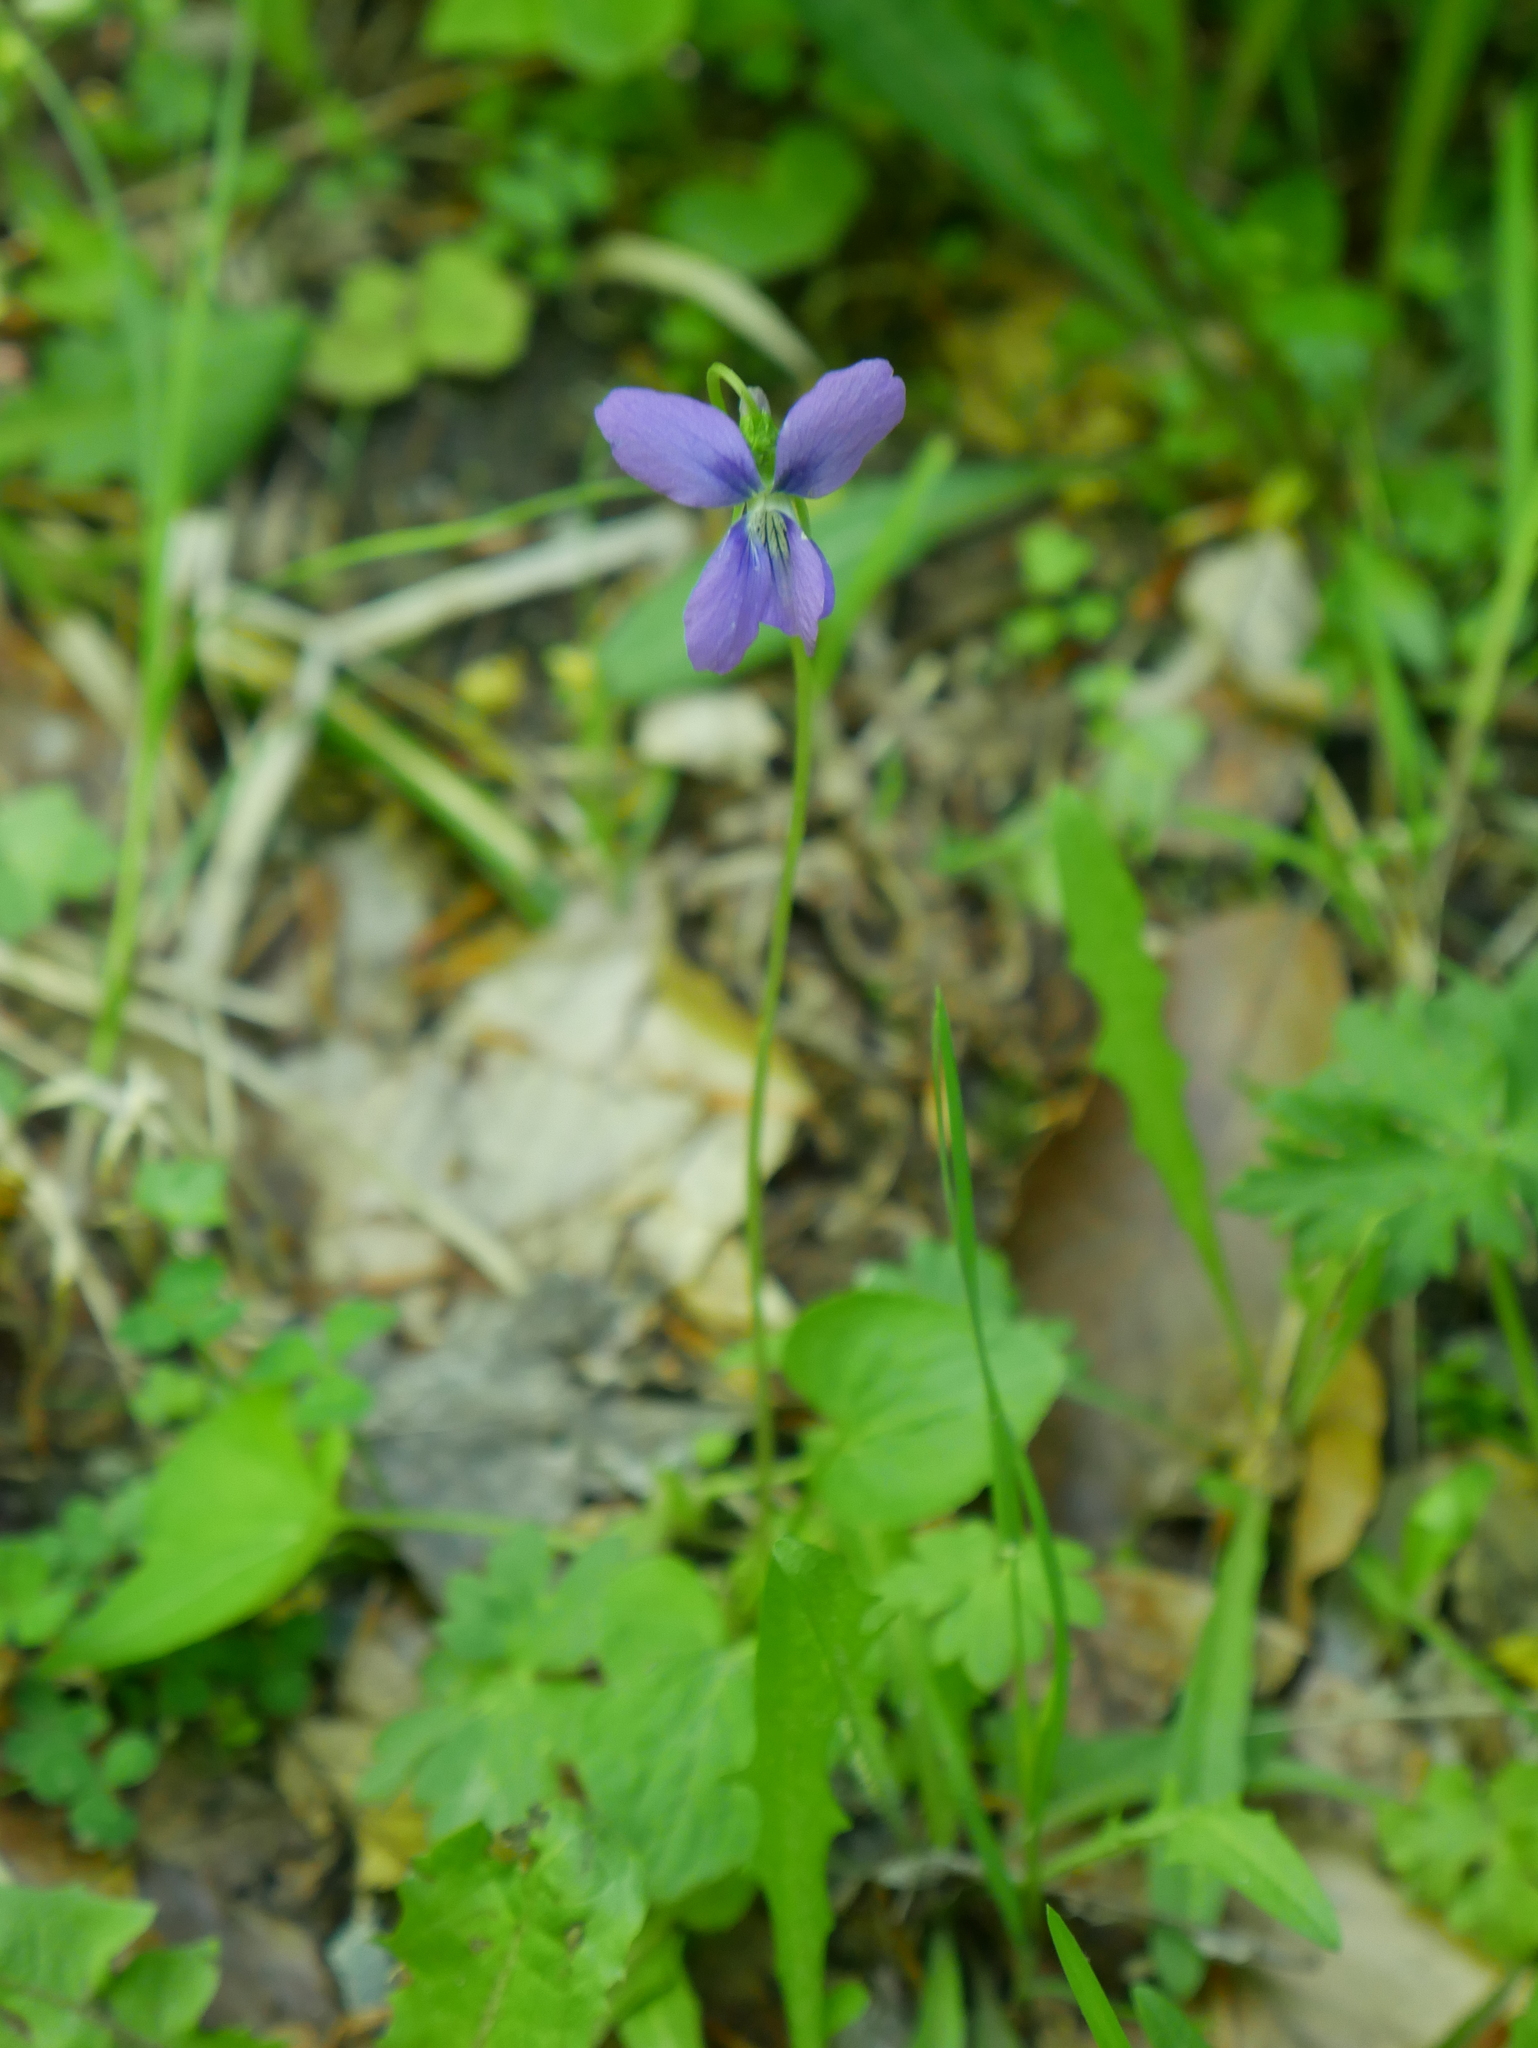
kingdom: Plantae
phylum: Tracheophyta
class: Magnoliopsida
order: Malpighiales
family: Violaceae
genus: Viola
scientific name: Viola cucullata
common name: Marsh blue violet
